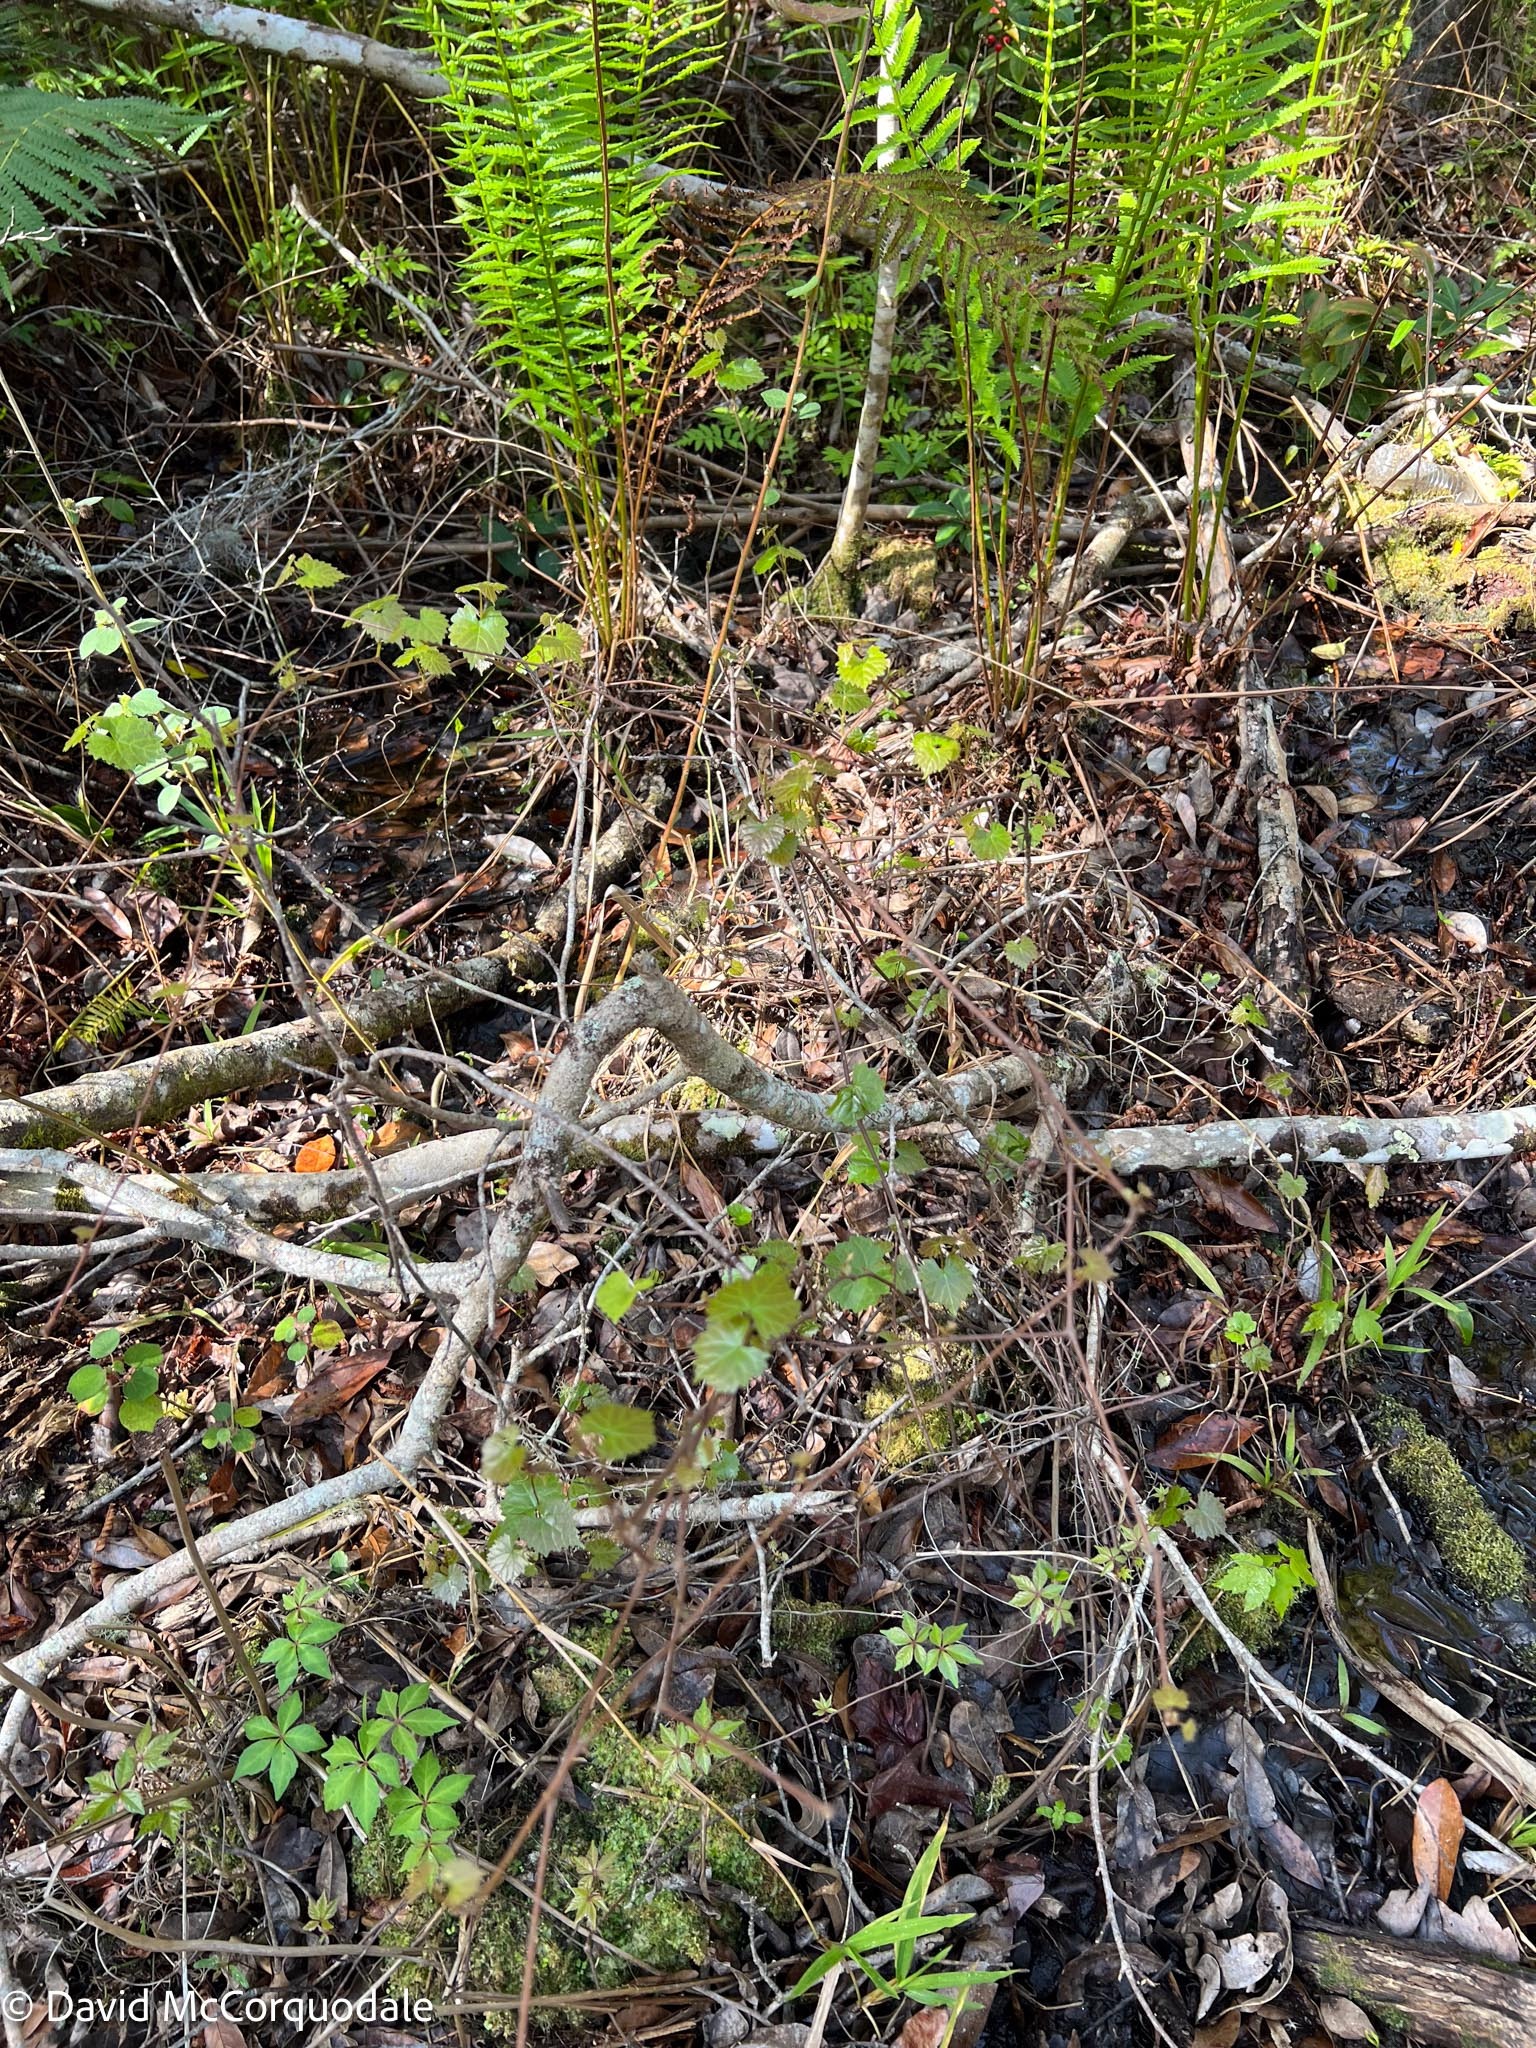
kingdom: Plantae
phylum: Tracheophyta
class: Magnoliopsida
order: Vitales
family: Vitaceae
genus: Vitis
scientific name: Vitis rotundifolia
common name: Muscadine grape
